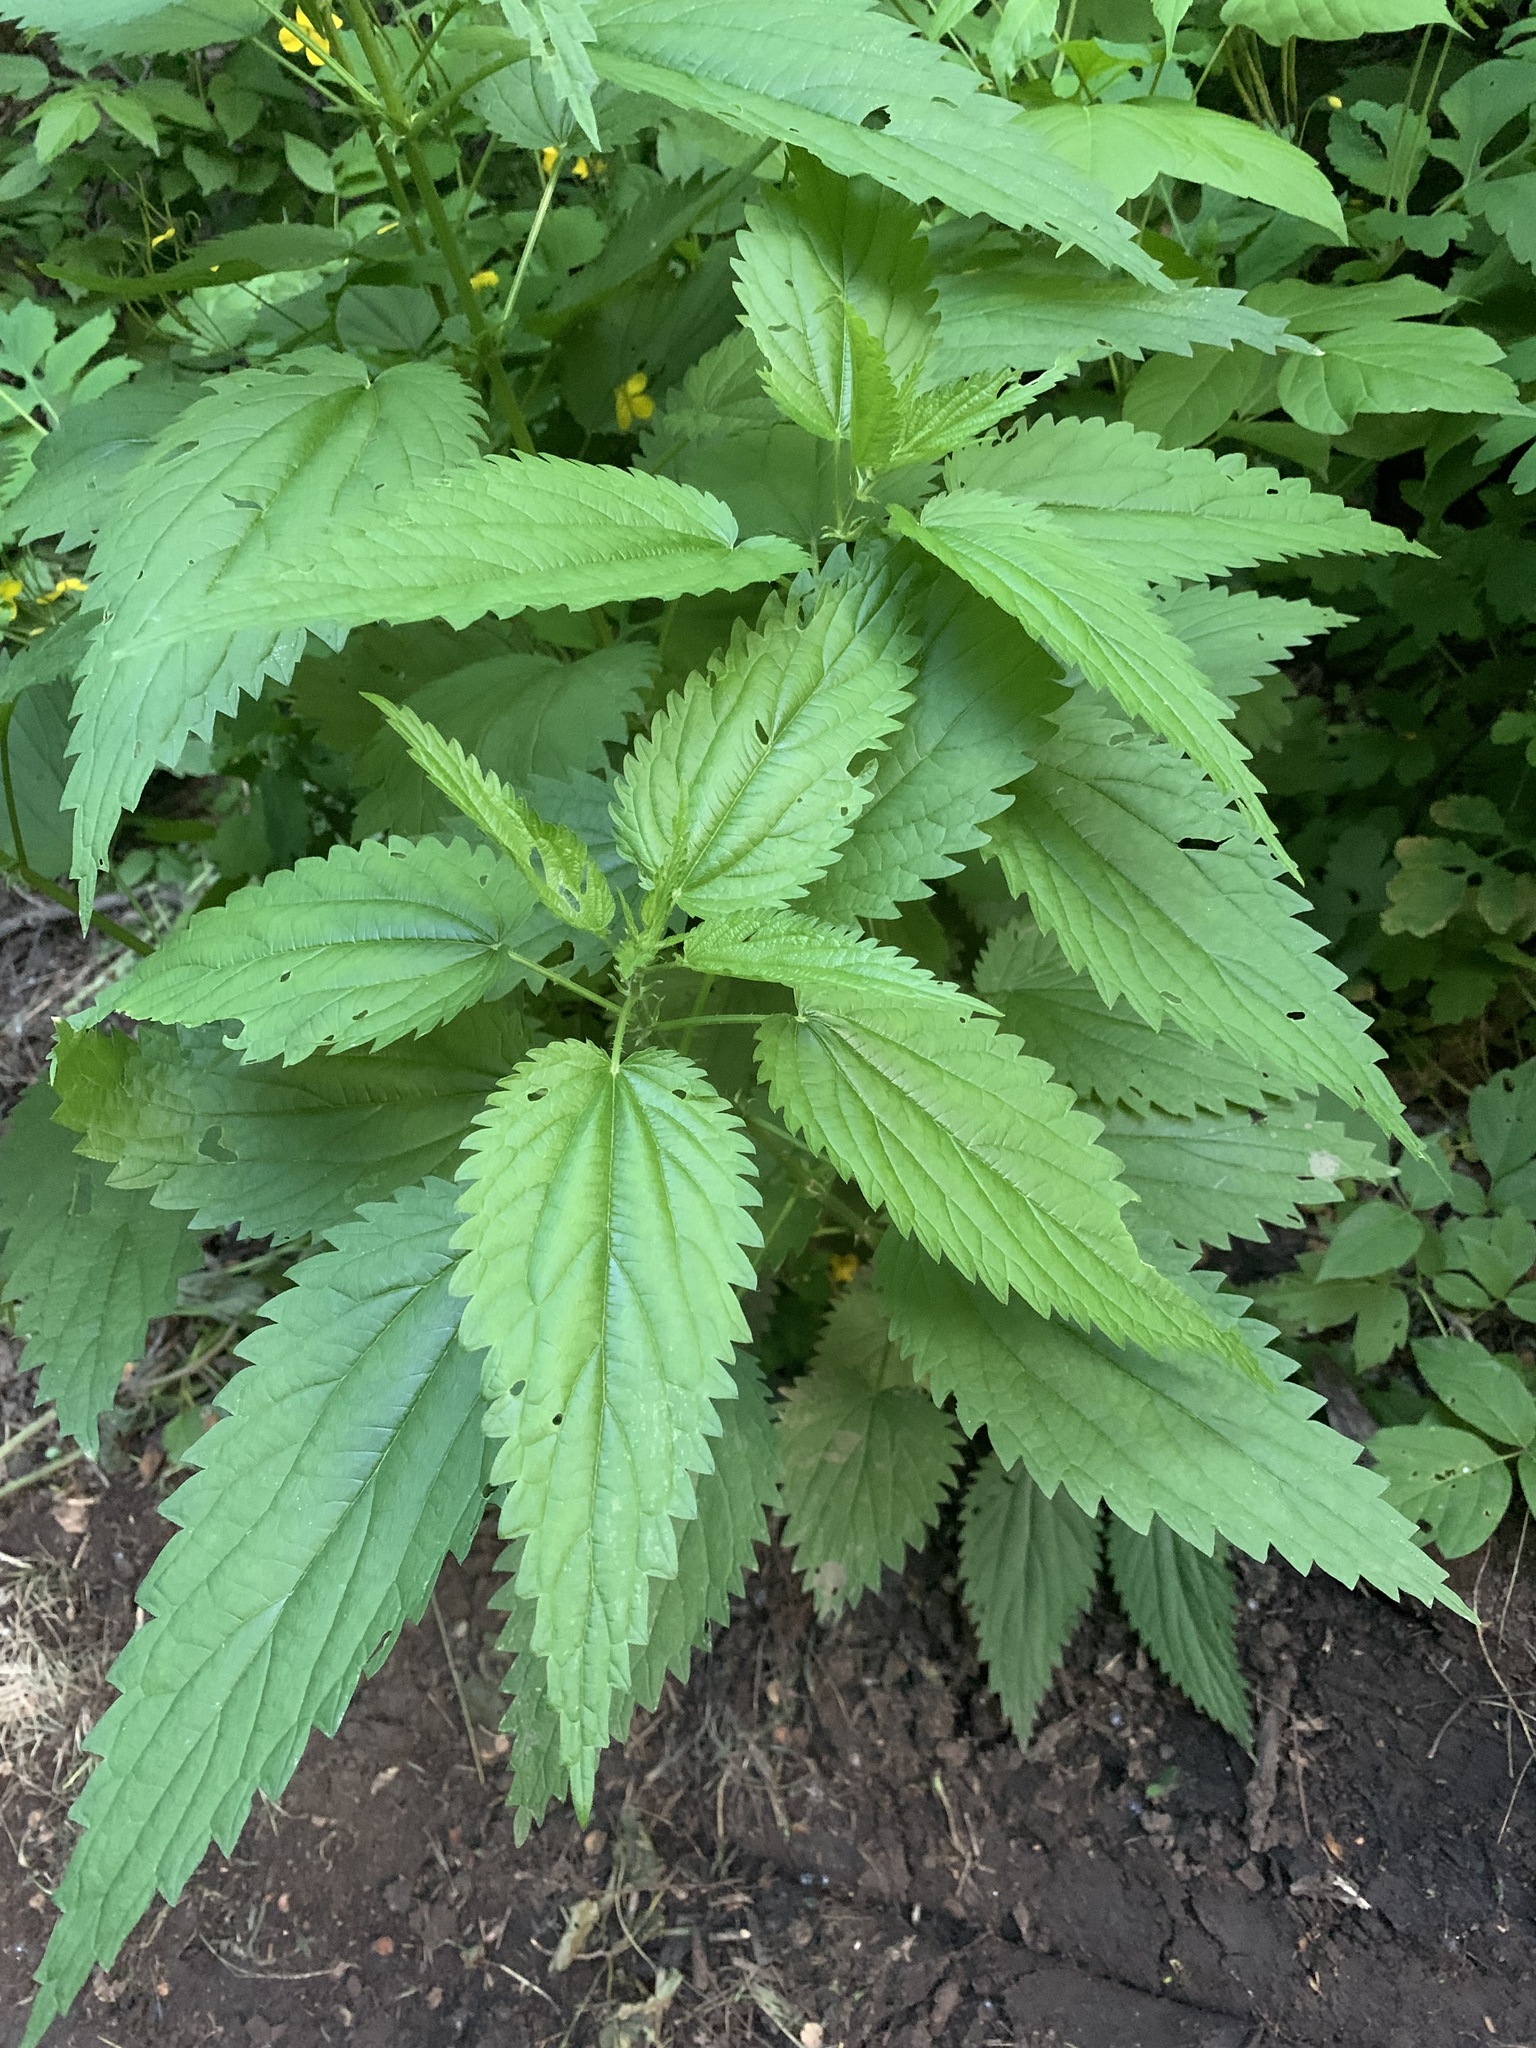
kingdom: Plantae
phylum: Tracheophyta
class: Magnoliopsida
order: Rosales
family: Urticaceae
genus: Urtica
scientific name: Urtica dioica
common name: Common nettle
